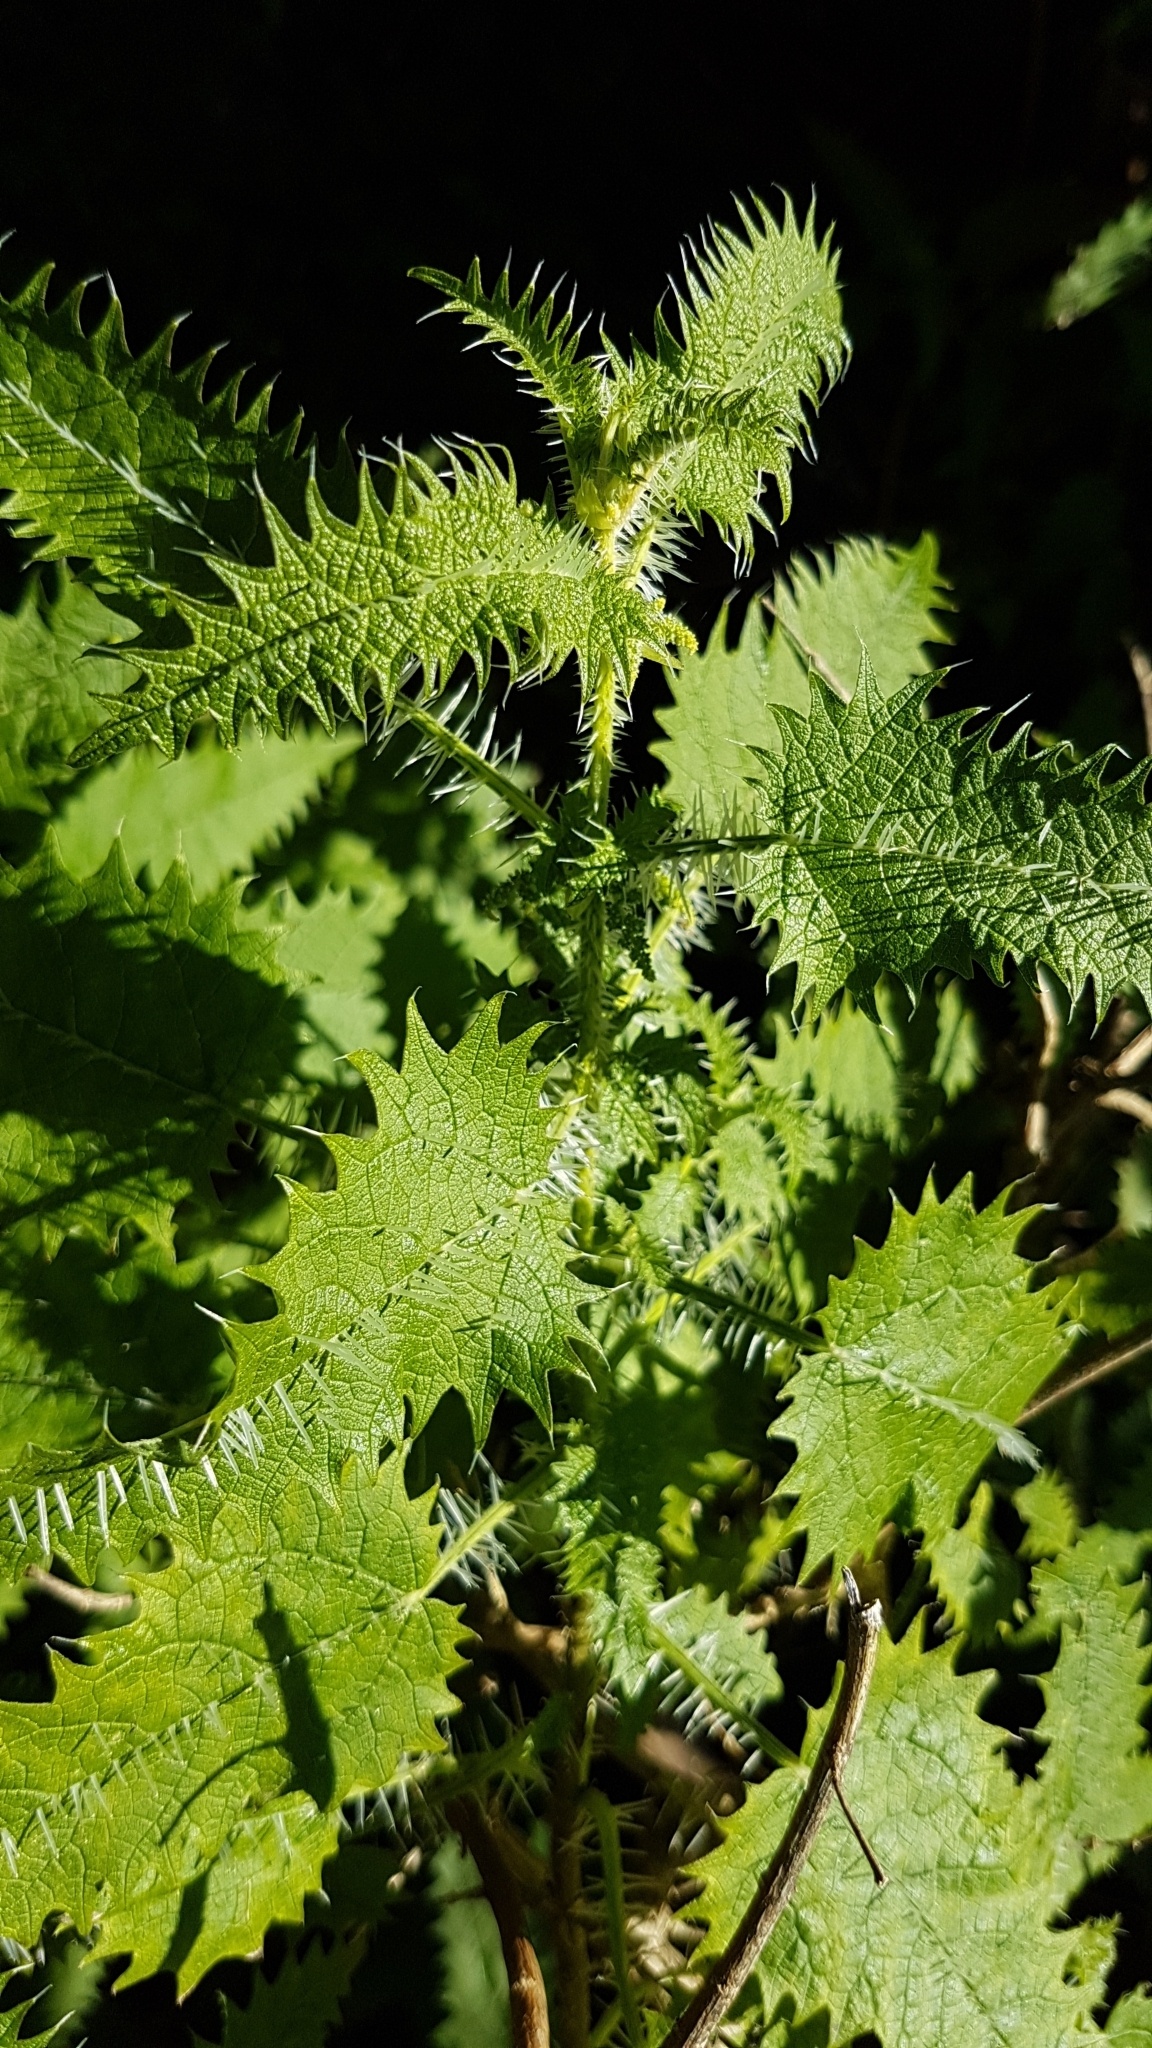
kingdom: Plantae
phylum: Tracheophyta
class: Magnoliopsida
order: Rosales
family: Urticaceae
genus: Urtica
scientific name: Urtica ferox
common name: Tree nettle
